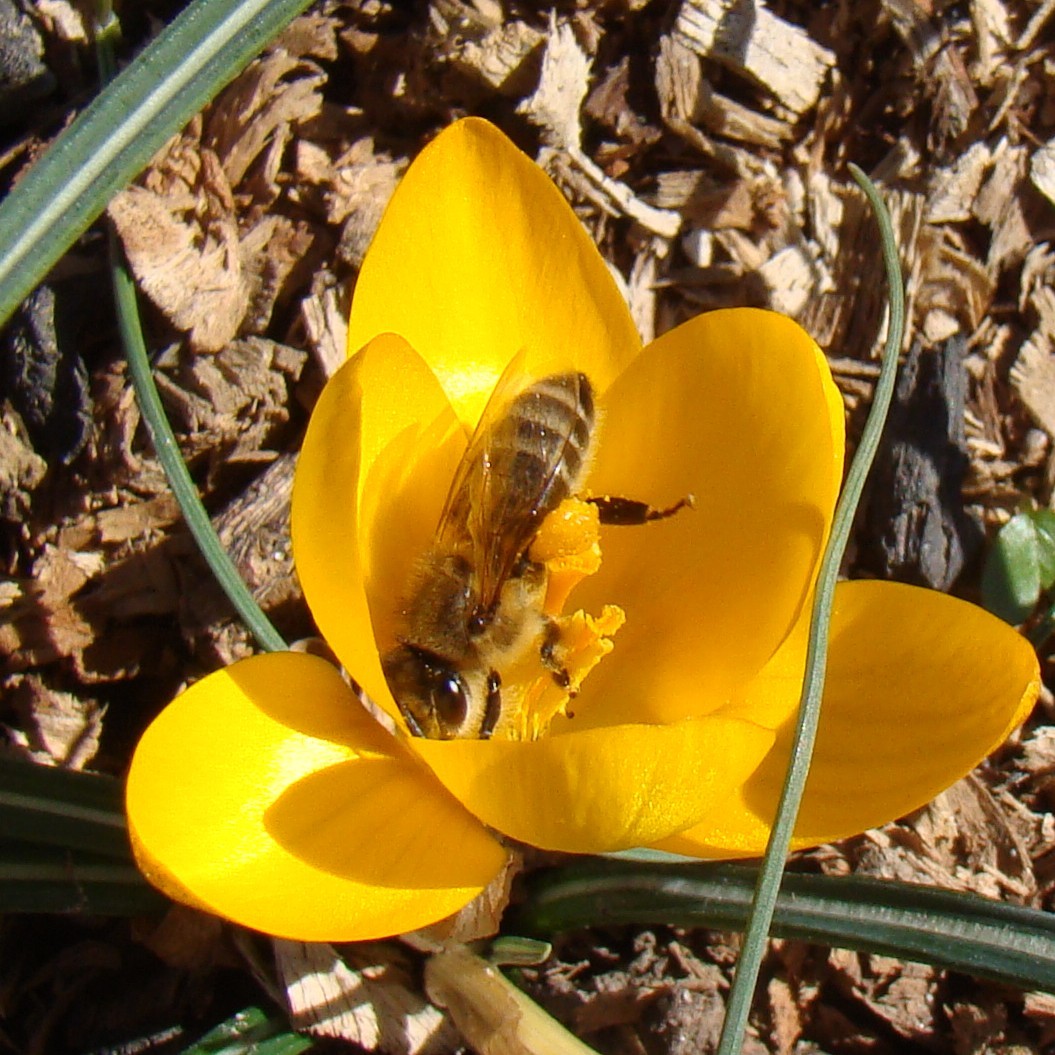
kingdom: Animalia
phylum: Arthropoda
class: Insecta
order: Hymenoptera
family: Apidae
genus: Apis
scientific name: Apis mellifera
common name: Honey bee
